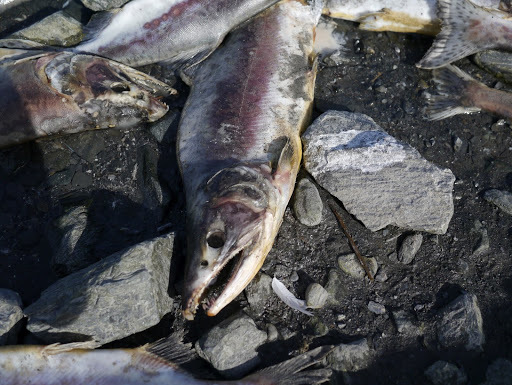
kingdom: Animalia
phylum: Chordata
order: Salmoniformes
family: Salmonidae
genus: Oncorhynchus
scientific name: Oncorhynchus gorbuscha
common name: Humpback salmon
